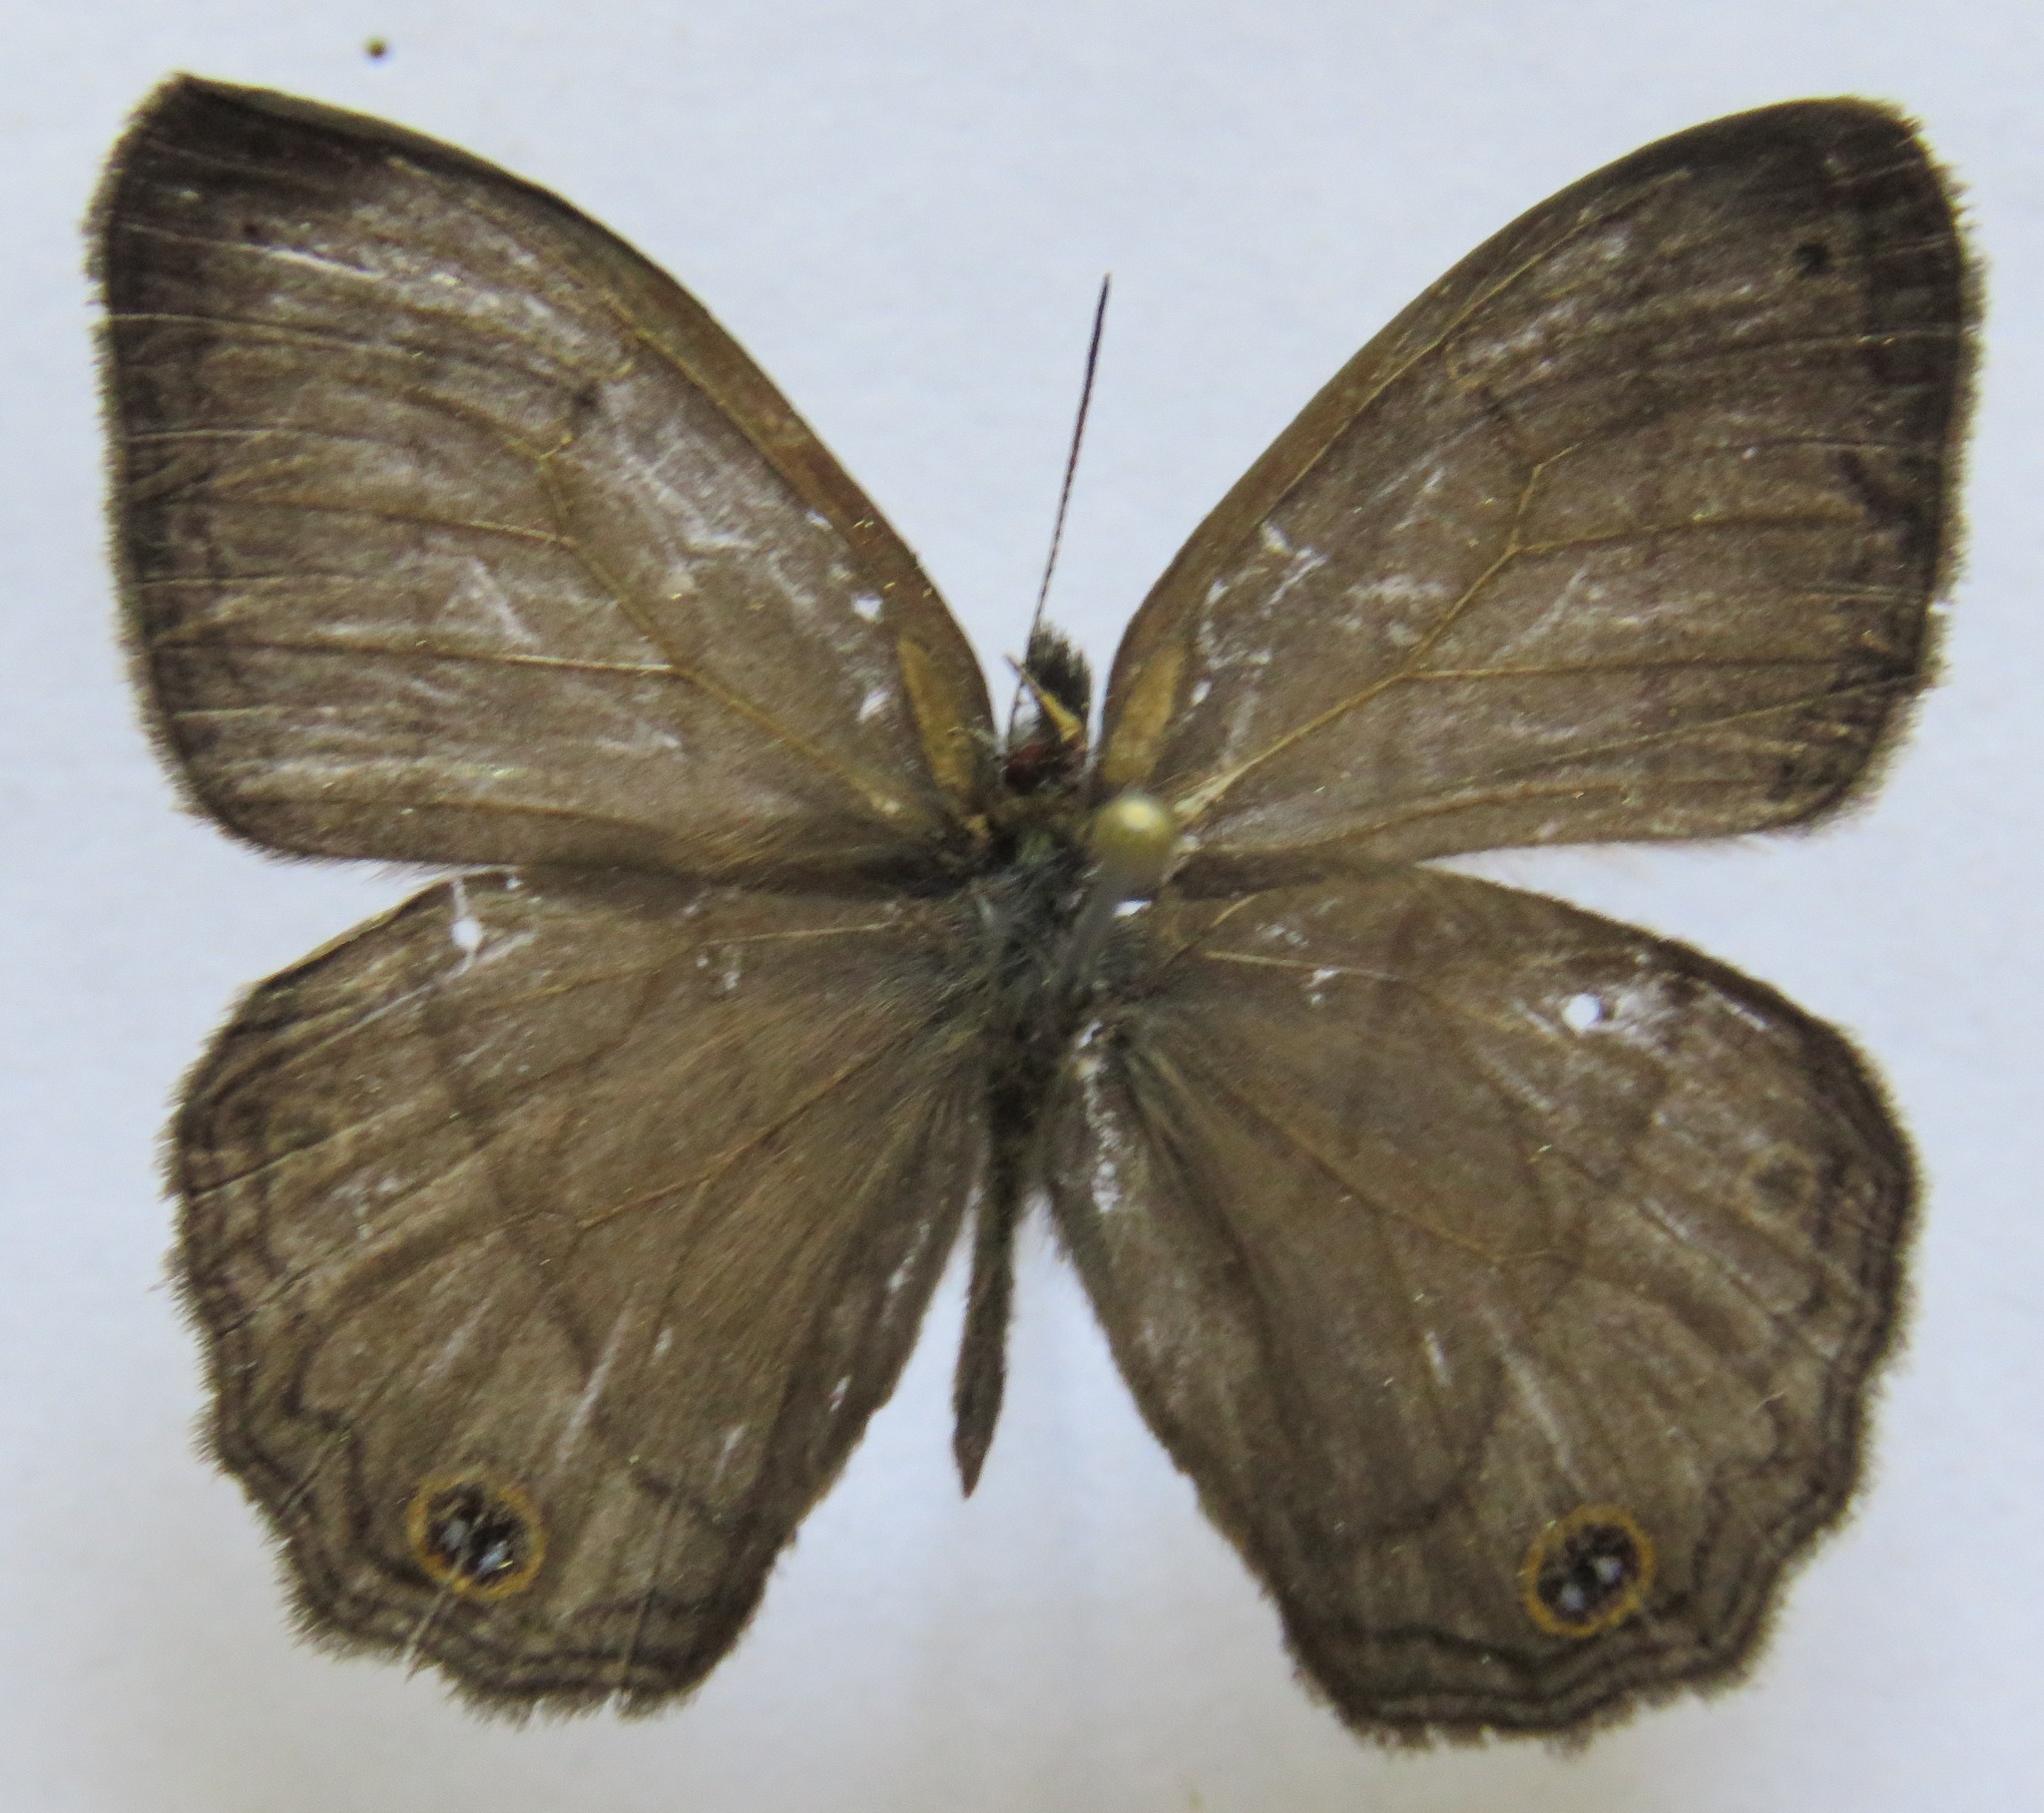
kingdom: Animalia
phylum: Arthropoda
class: Insecta
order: Lepidoptera
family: Nymphalidae
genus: Euptychia
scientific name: Euptychia Cissia pompilia
